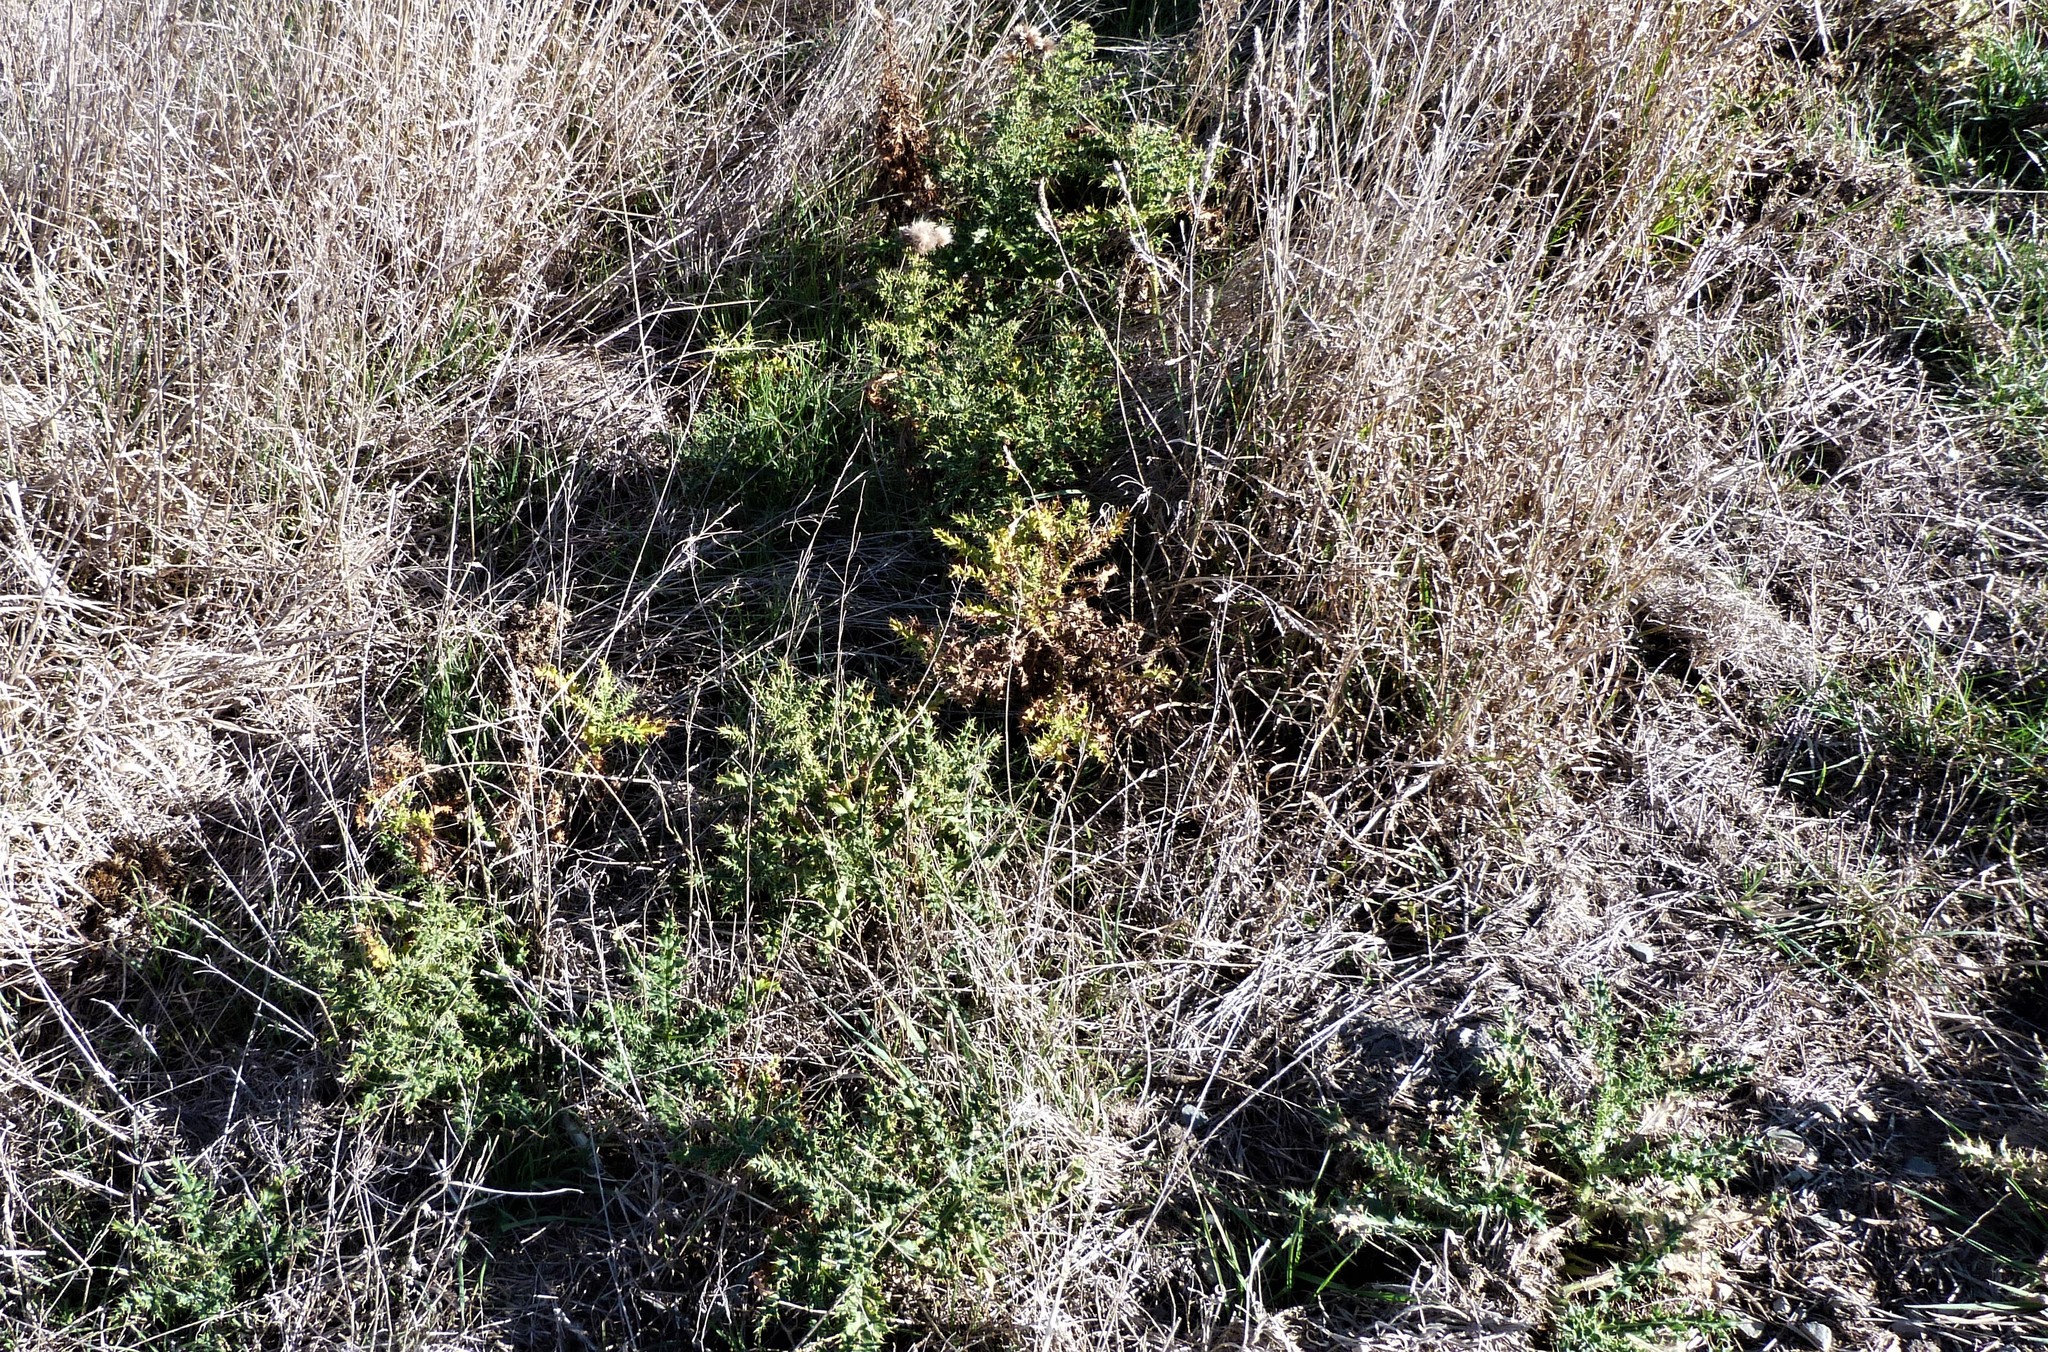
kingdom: Plantae
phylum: Tracheophyta
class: Magnoliopsida
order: Asterales
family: Asteraceae
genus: Cirsium
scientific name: Cirsium arvense
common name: Creeping thistle
